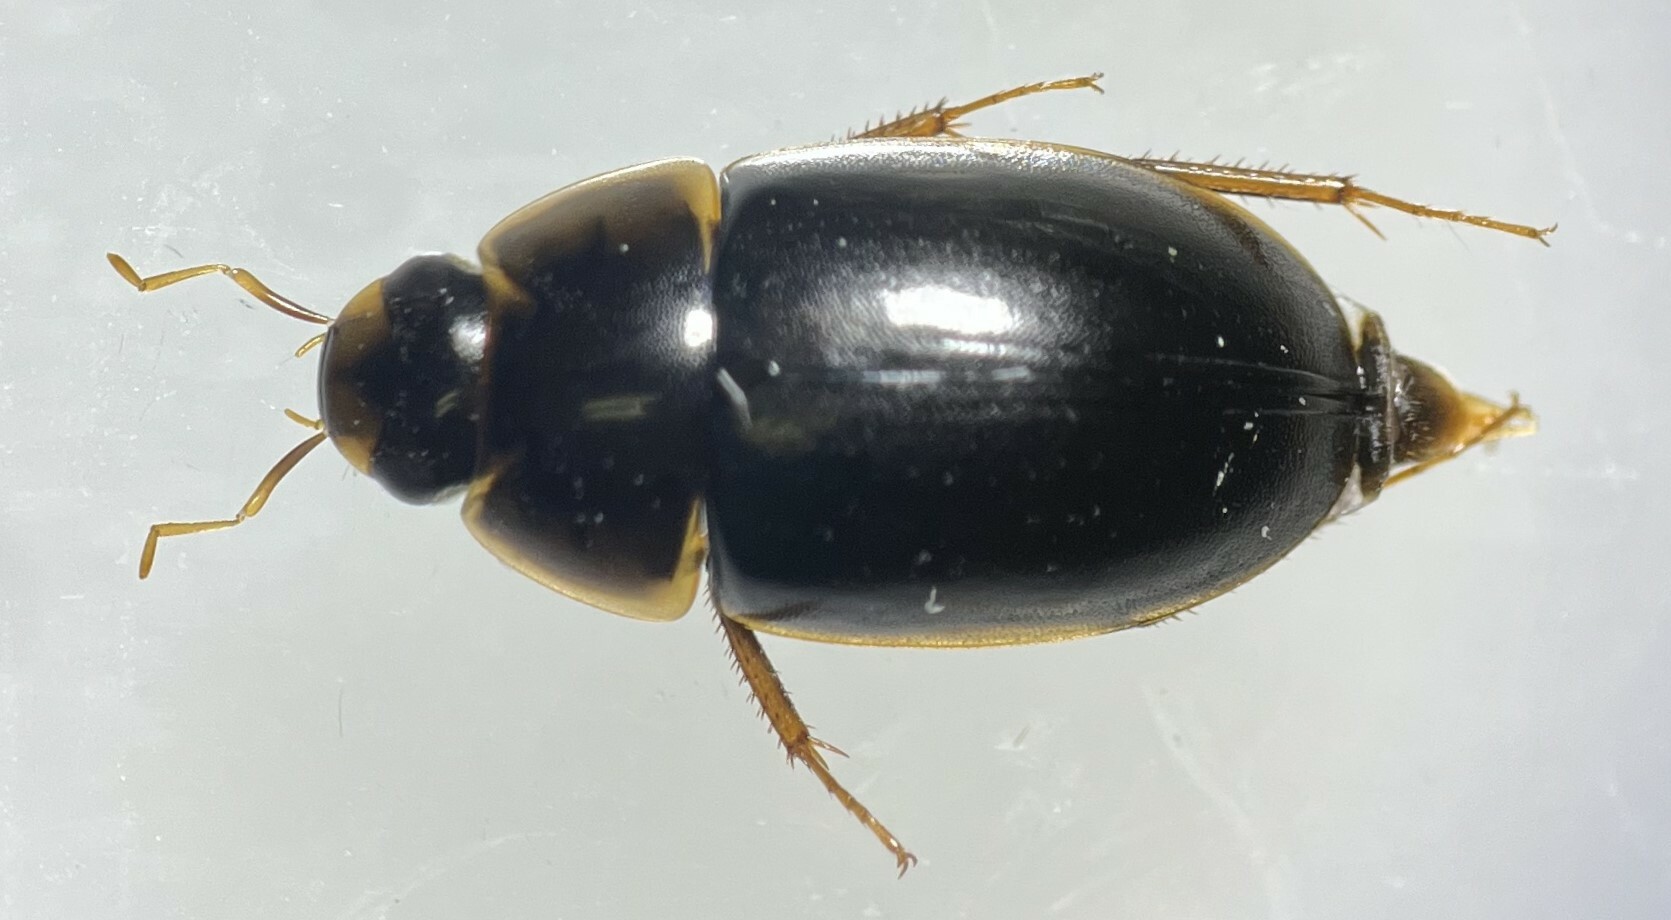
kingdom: Animalia
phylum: Arthropoda
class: Insecta
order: Coleoptera
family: Hydrophilidae
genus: Enochrus
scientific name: Enochrus hamiltoni
